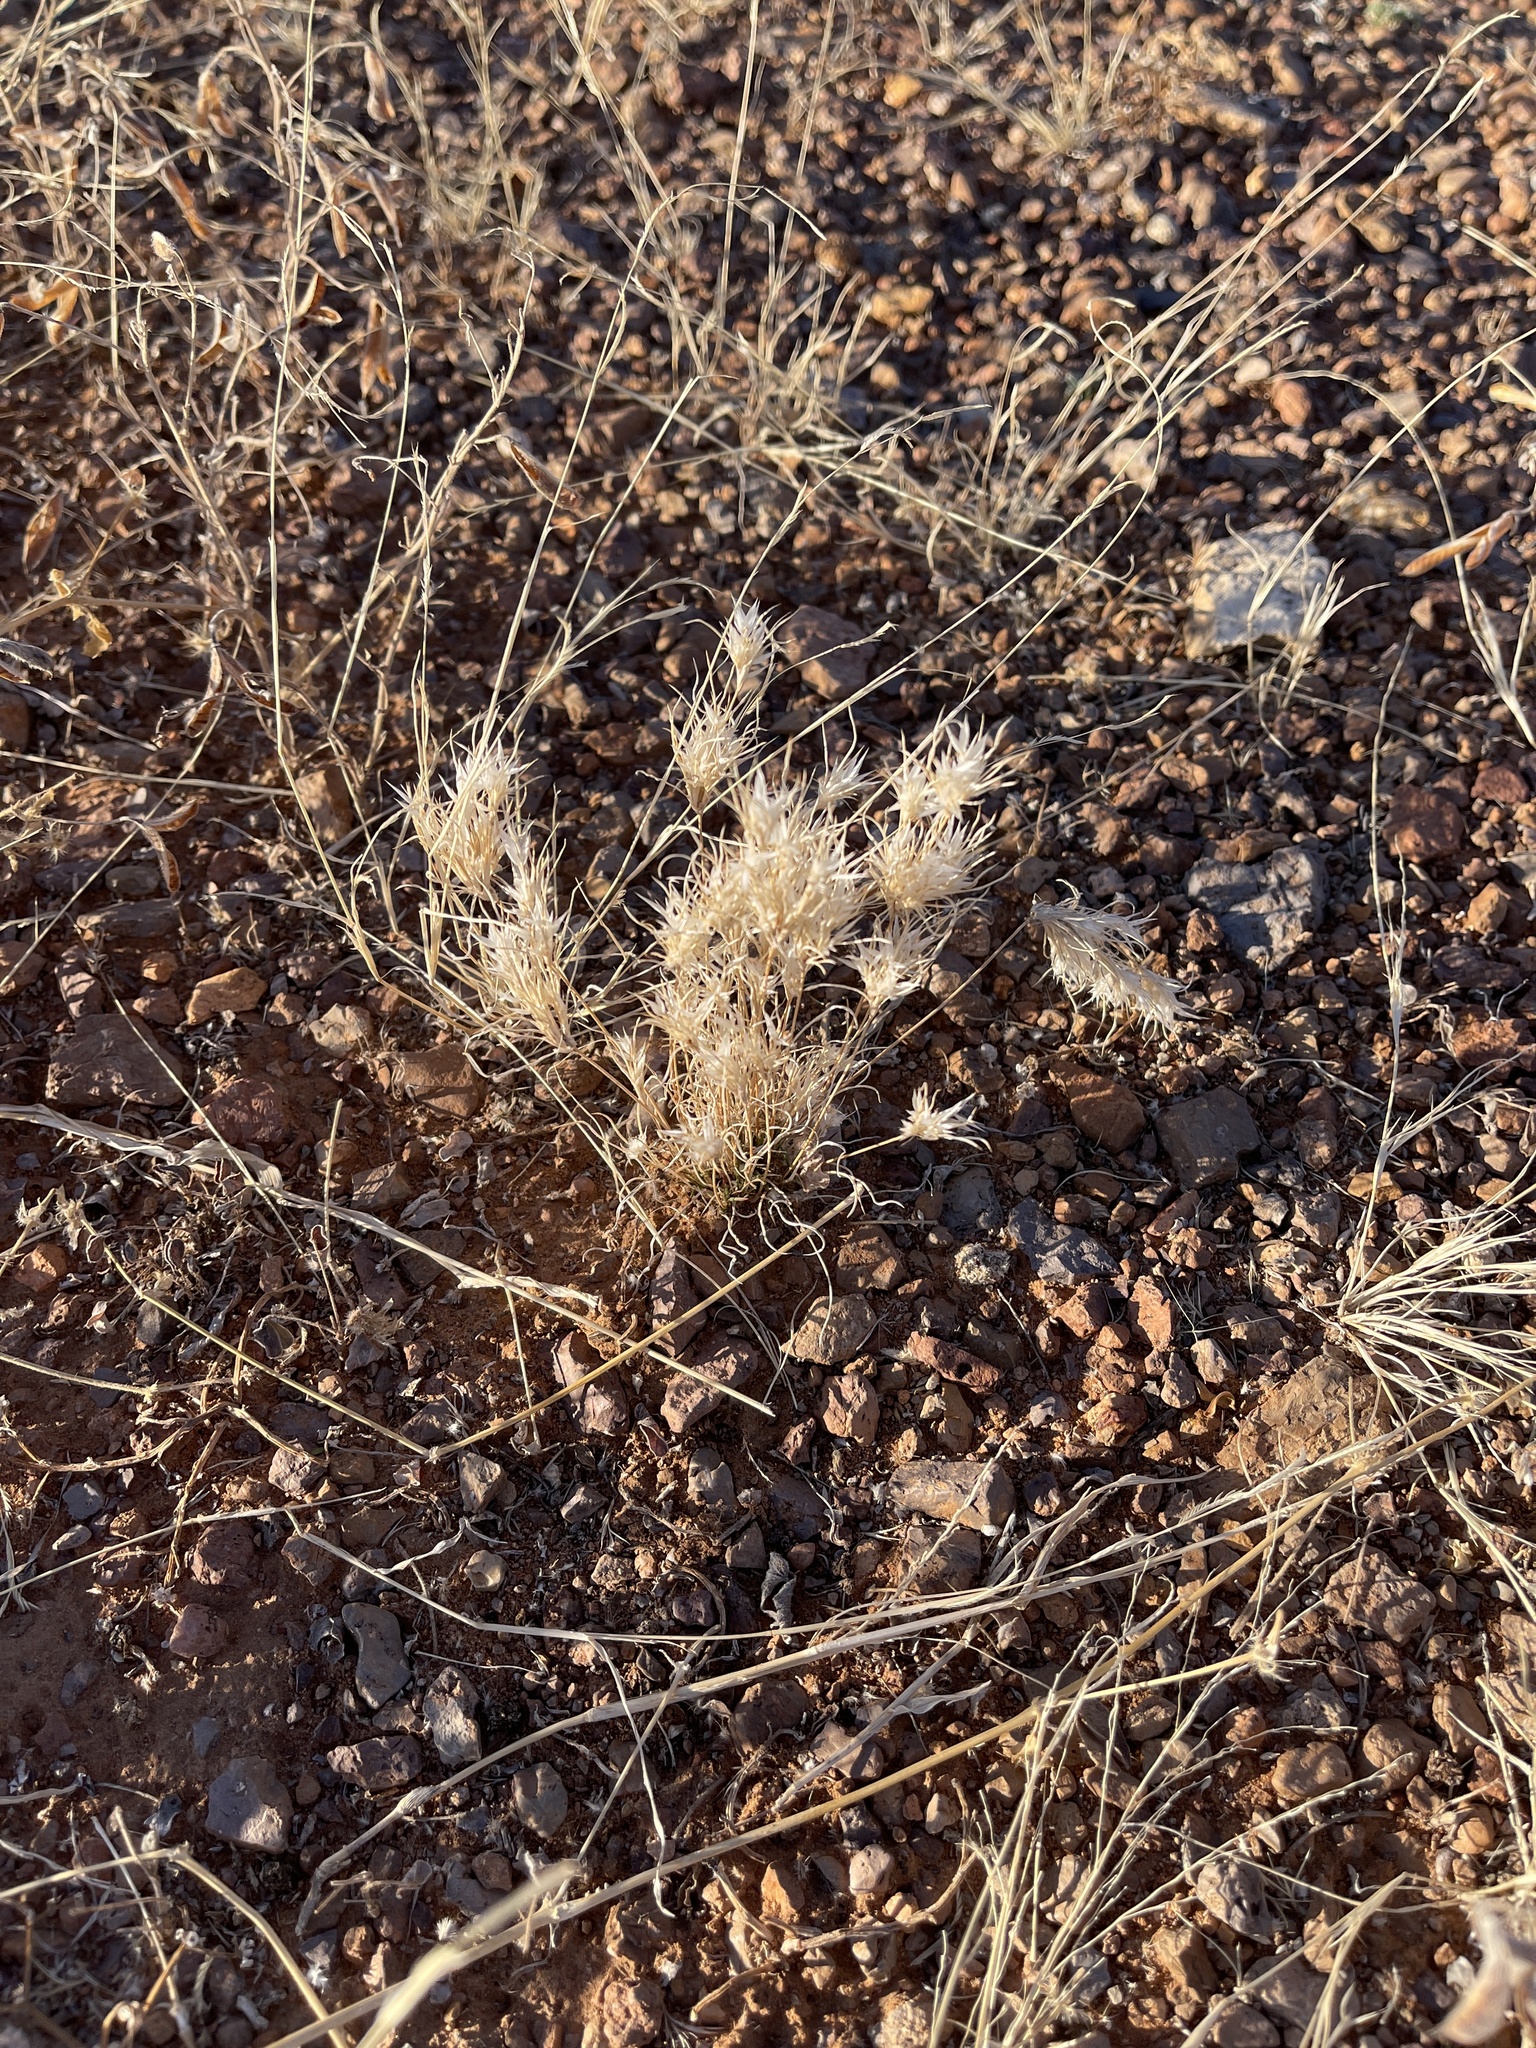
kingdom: Plantae
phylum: Tracheophyta
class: Liliopsida
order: Poales
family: Poaceae
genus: Dasyochloa
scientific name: Dasyochloa pulchella
